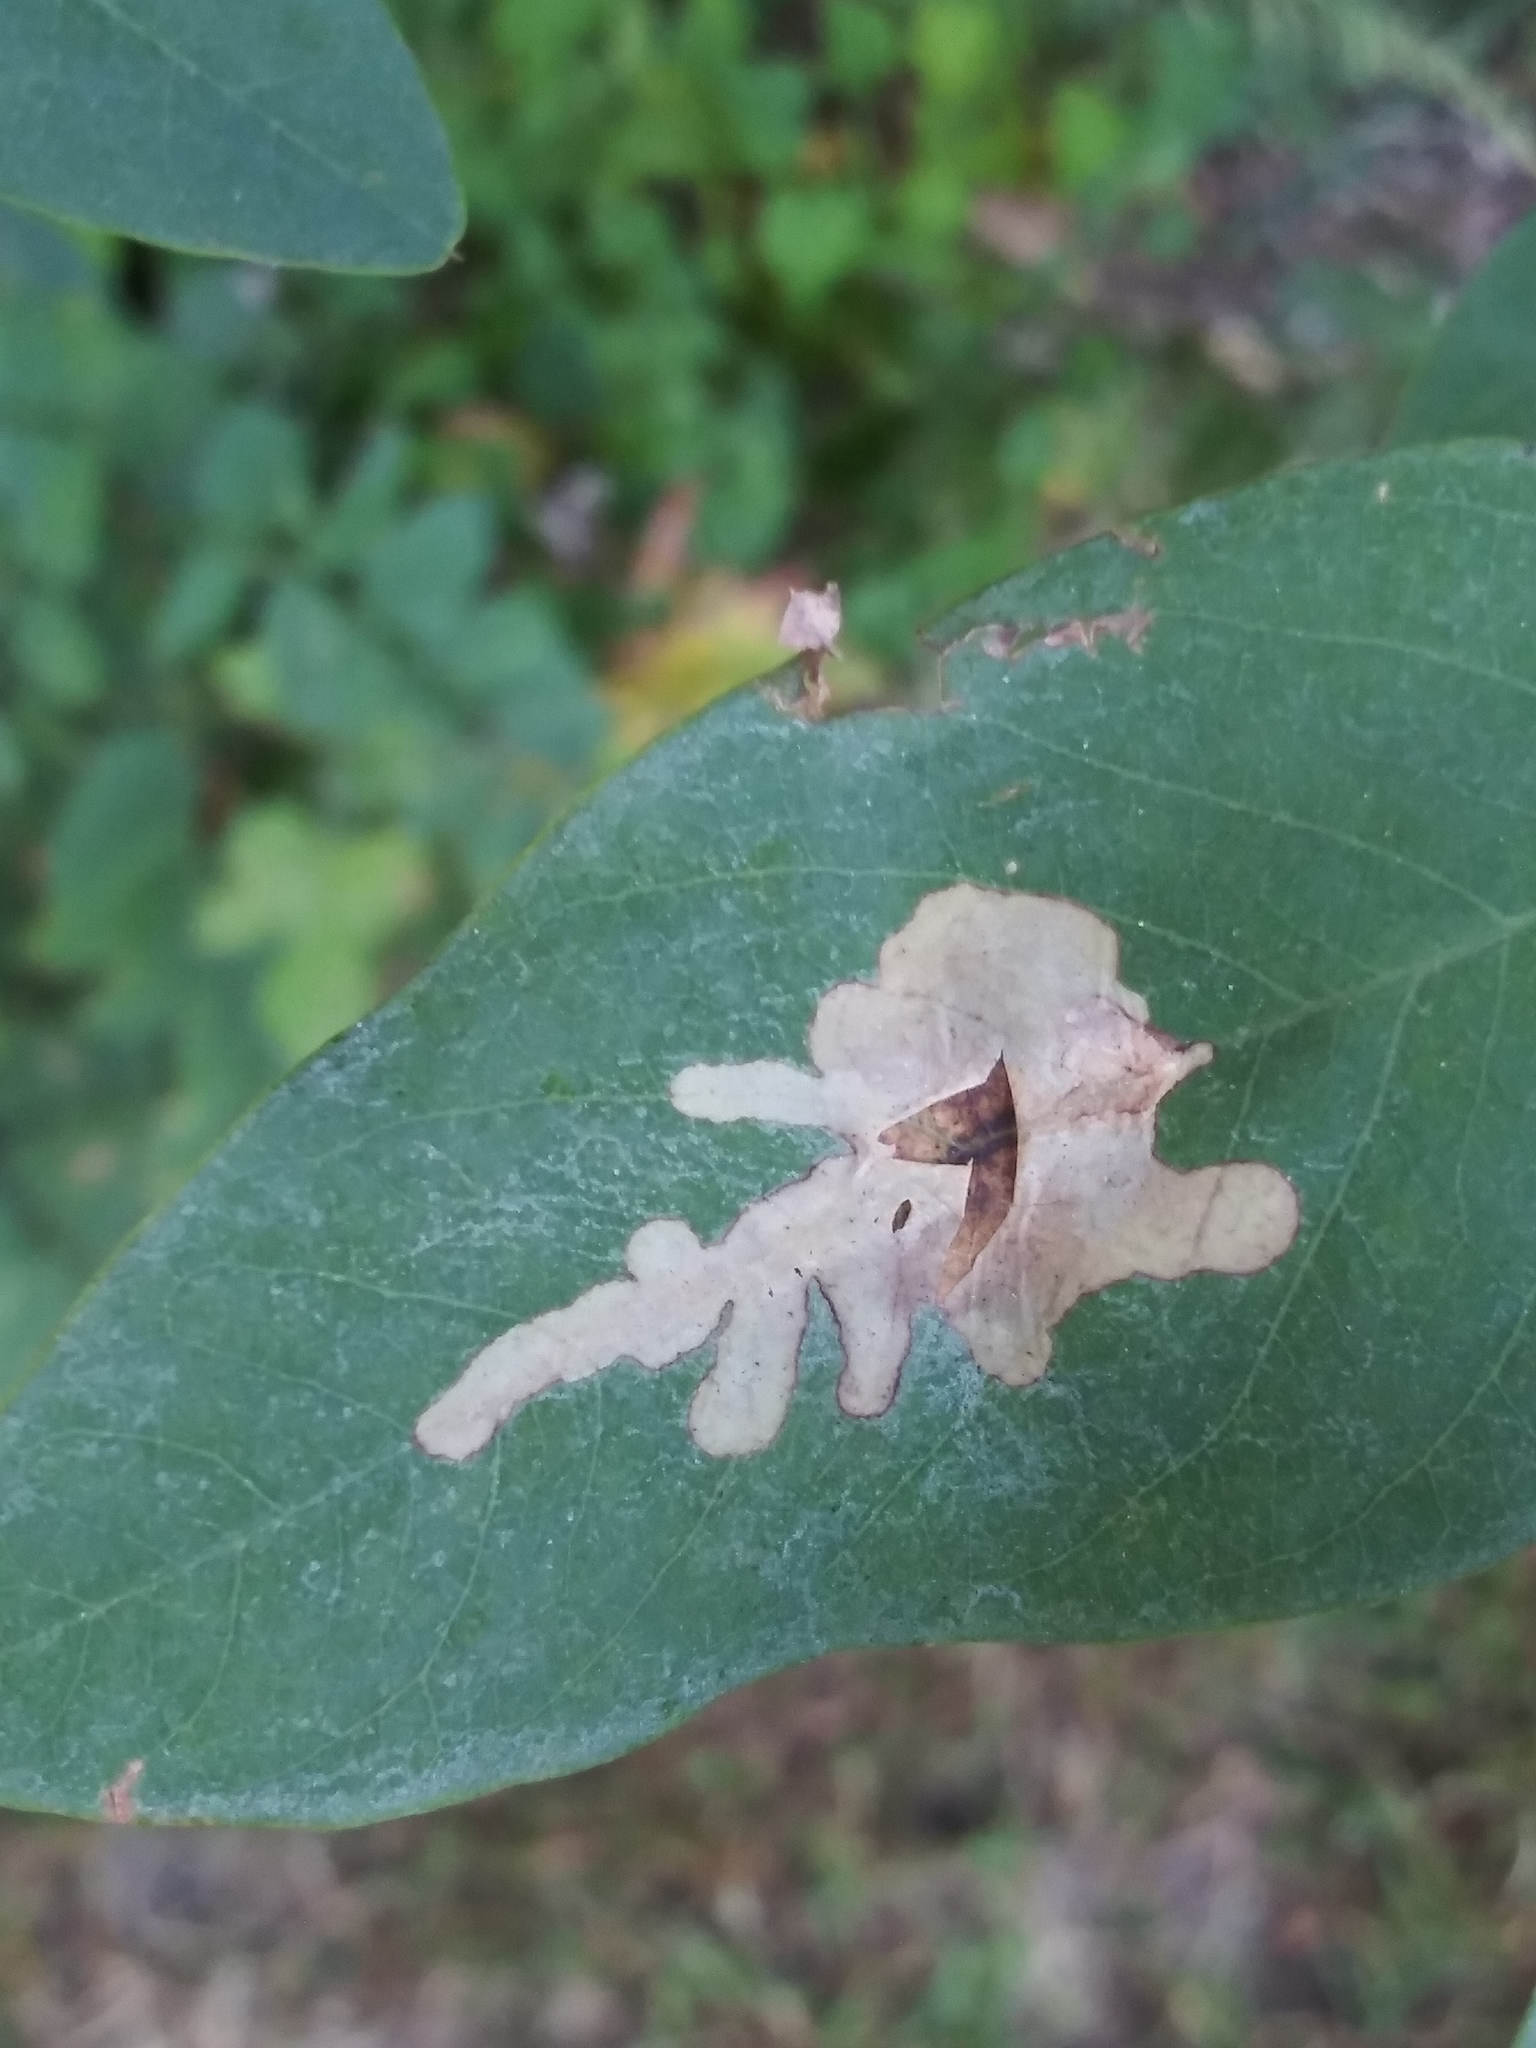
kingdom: Animalia
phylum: Arthropoda
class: Insecta
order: Lepidoptera
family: Gracillariidae
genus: Parectopa
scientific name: Parectopa robiniella
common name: Locust digitate leafminer
